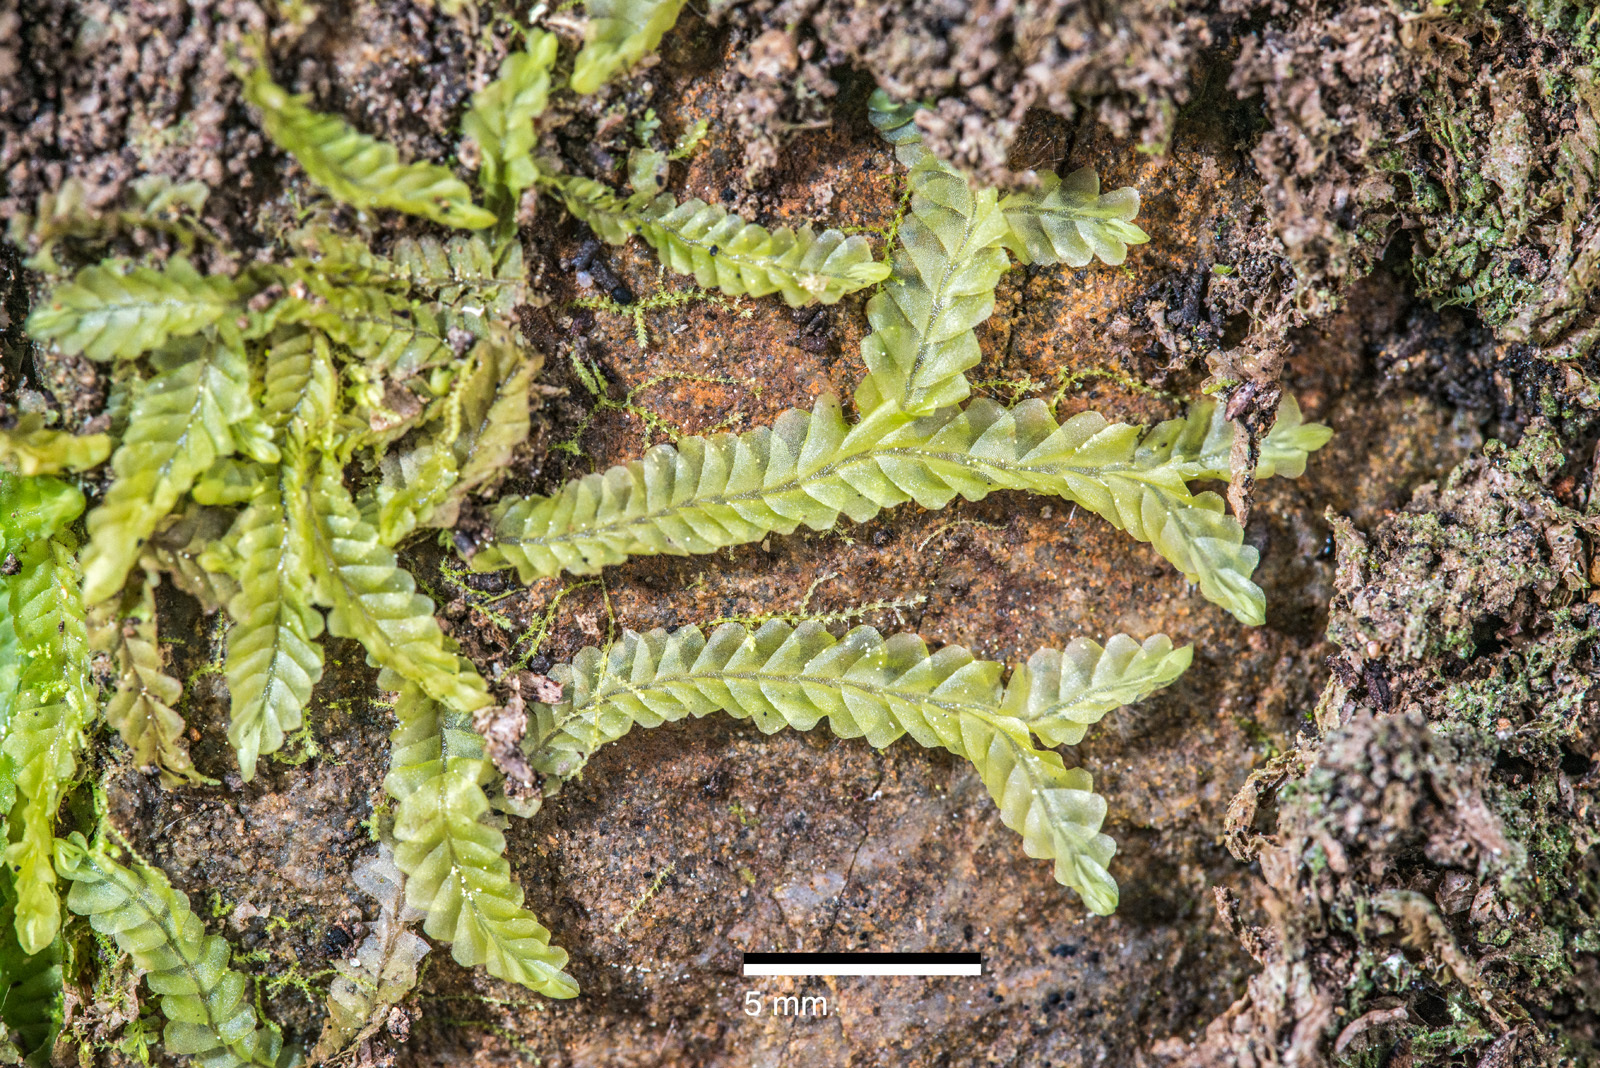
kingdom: Plantae
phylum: Marchantiophyta
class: Jungermanniopsida
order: Jungermanniales
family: Lophocoleaceae
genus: Lophocolea
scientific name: Lophocolea semiteres
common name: Southern crestwort
